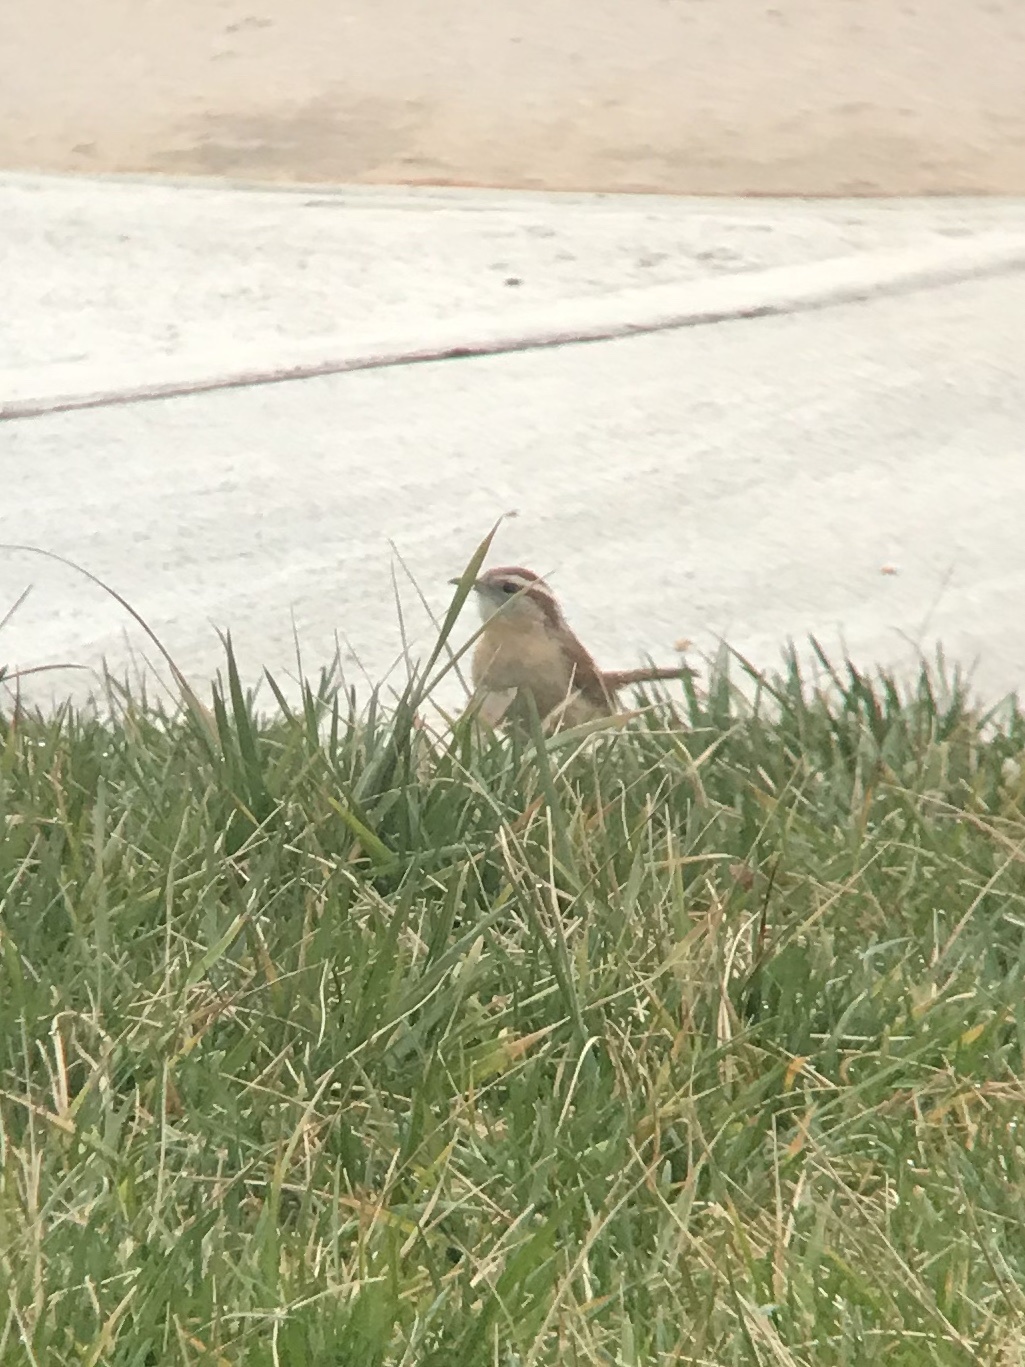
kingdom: Animalia
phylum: Chordata
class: Aves
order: Passeriformes
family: Troglodytidae
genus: Thryothorus
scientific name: Thryothorus ludovicianus
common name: Carolina wren
